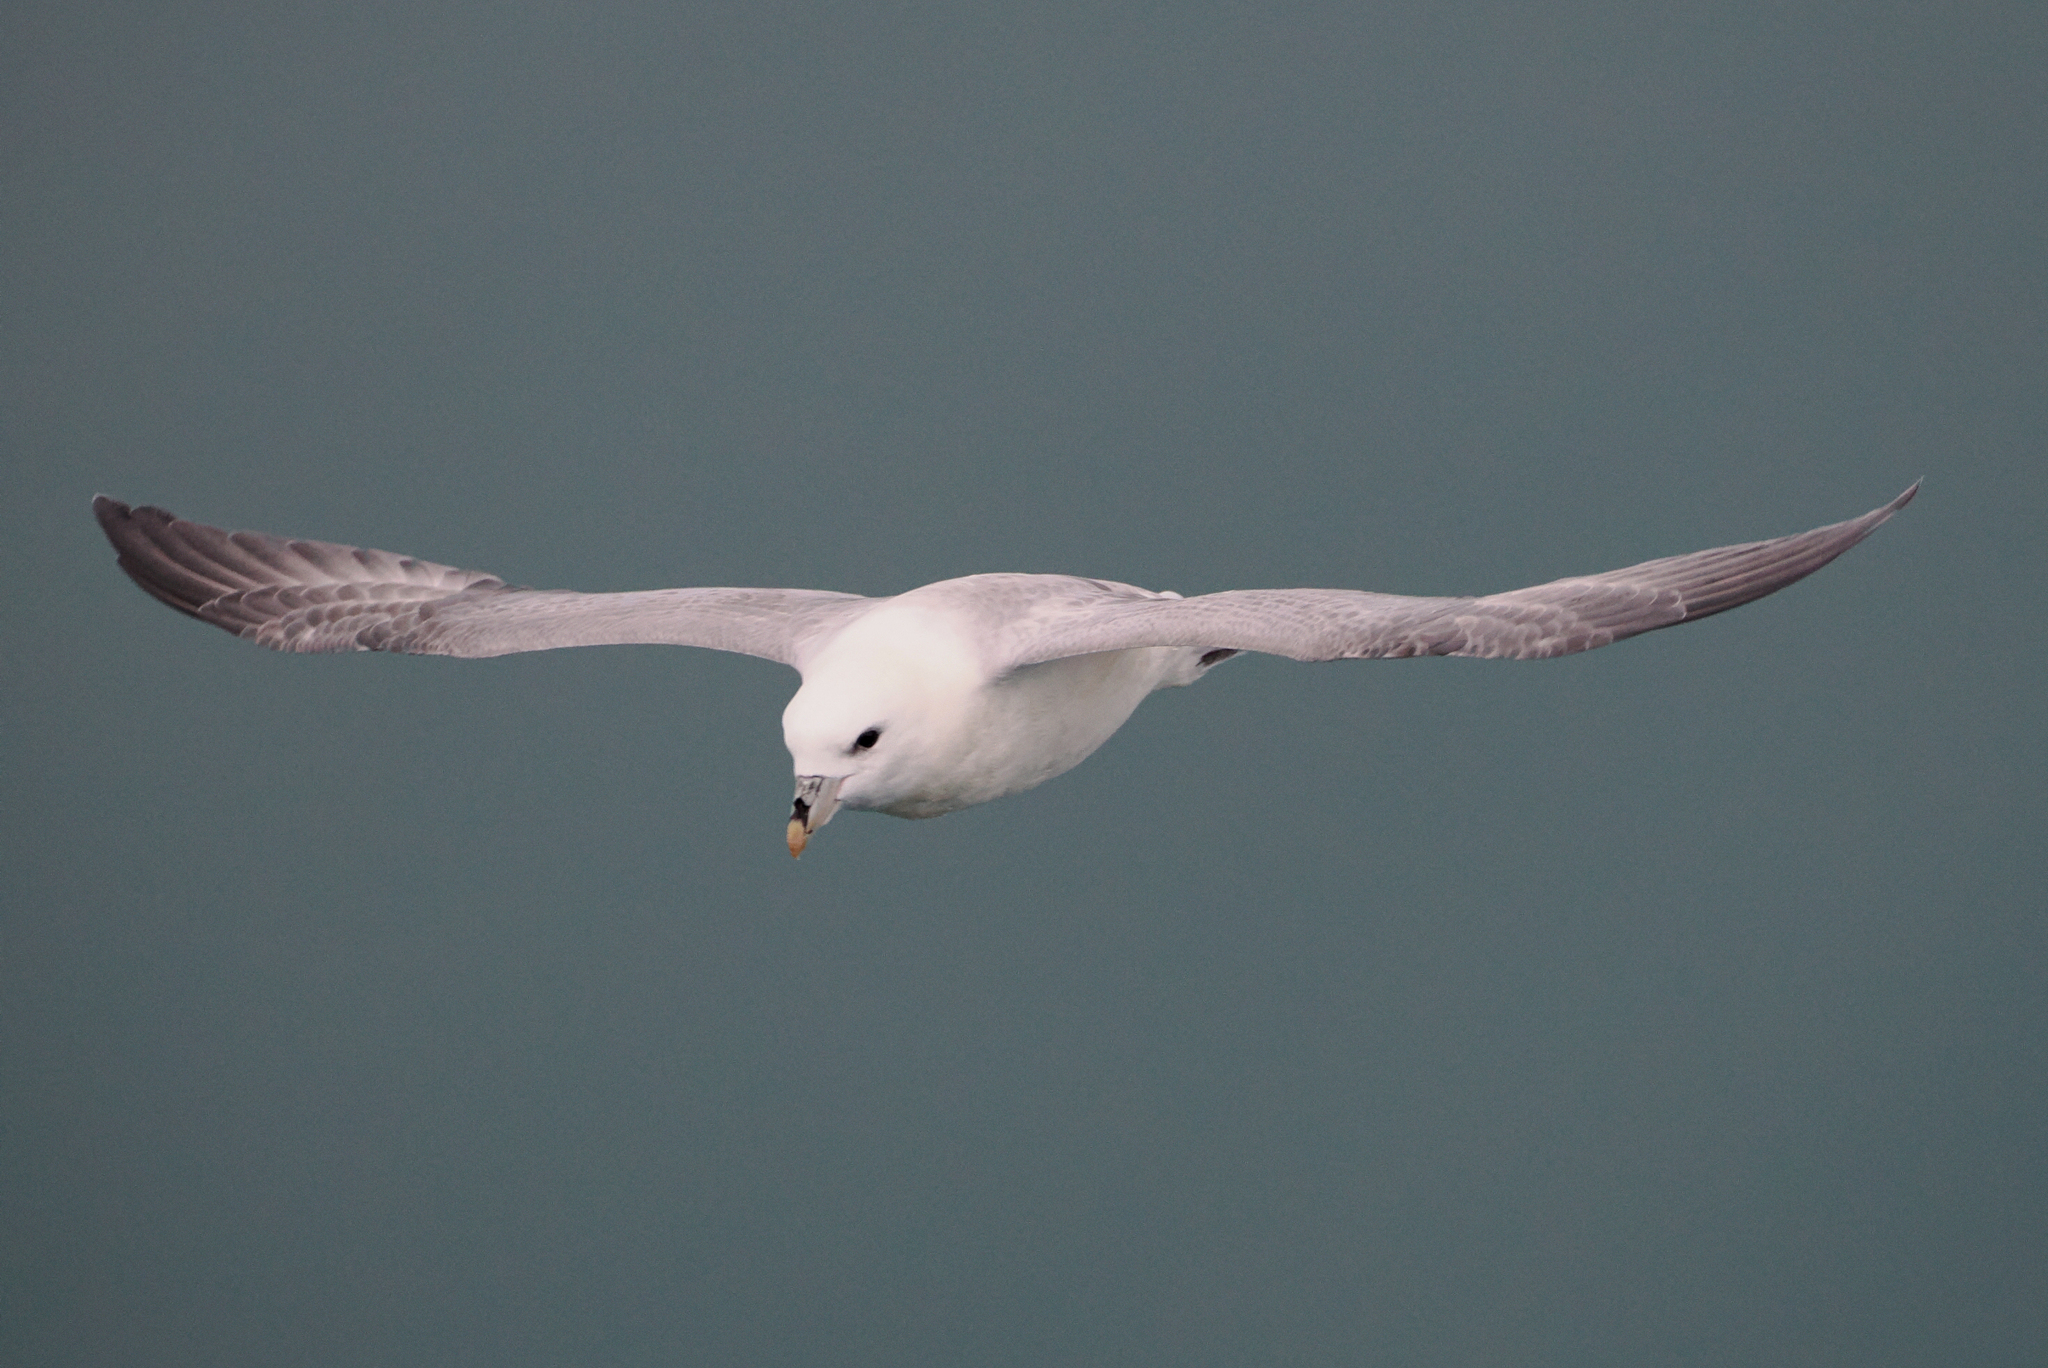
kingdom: Animalia
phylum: Chordata
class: Aves
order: Procellariiformes
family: Procellariidae
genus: Fulmarus
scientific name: Fulmarus glacialis
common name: Northern fulmar
